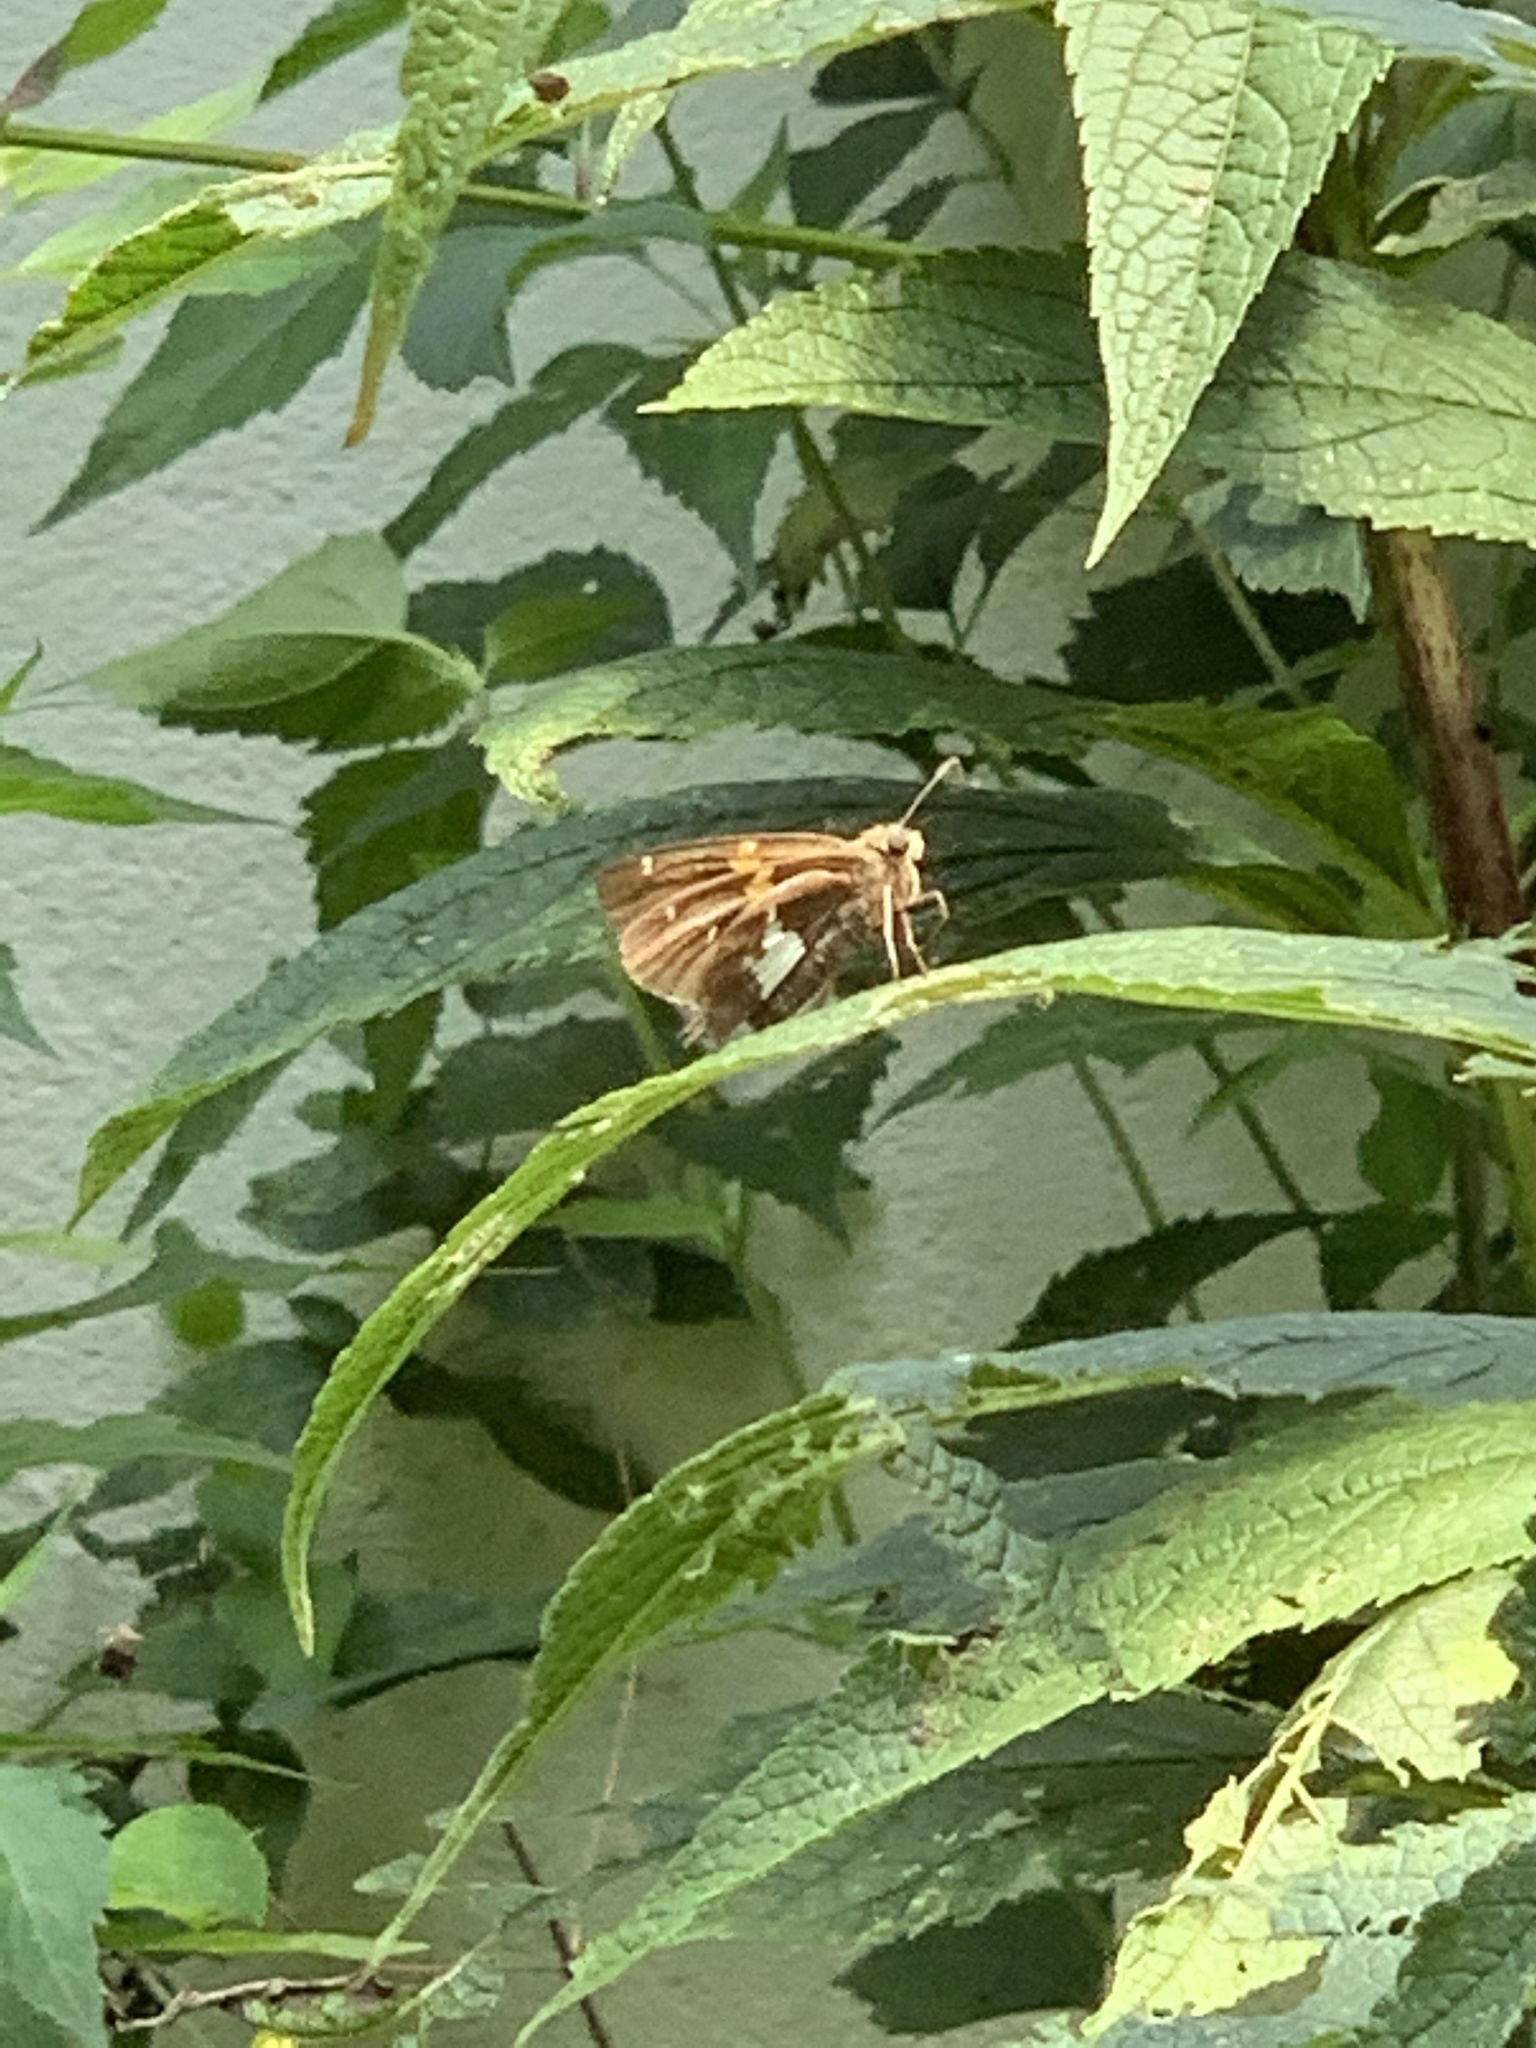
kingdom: Animalia
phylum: Arthropoda
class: Insecta
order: Lepidoptera
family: Hesperiidae
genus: Epargyreus
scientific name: Epargyreus clarus
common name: Silver-spotted skipper
